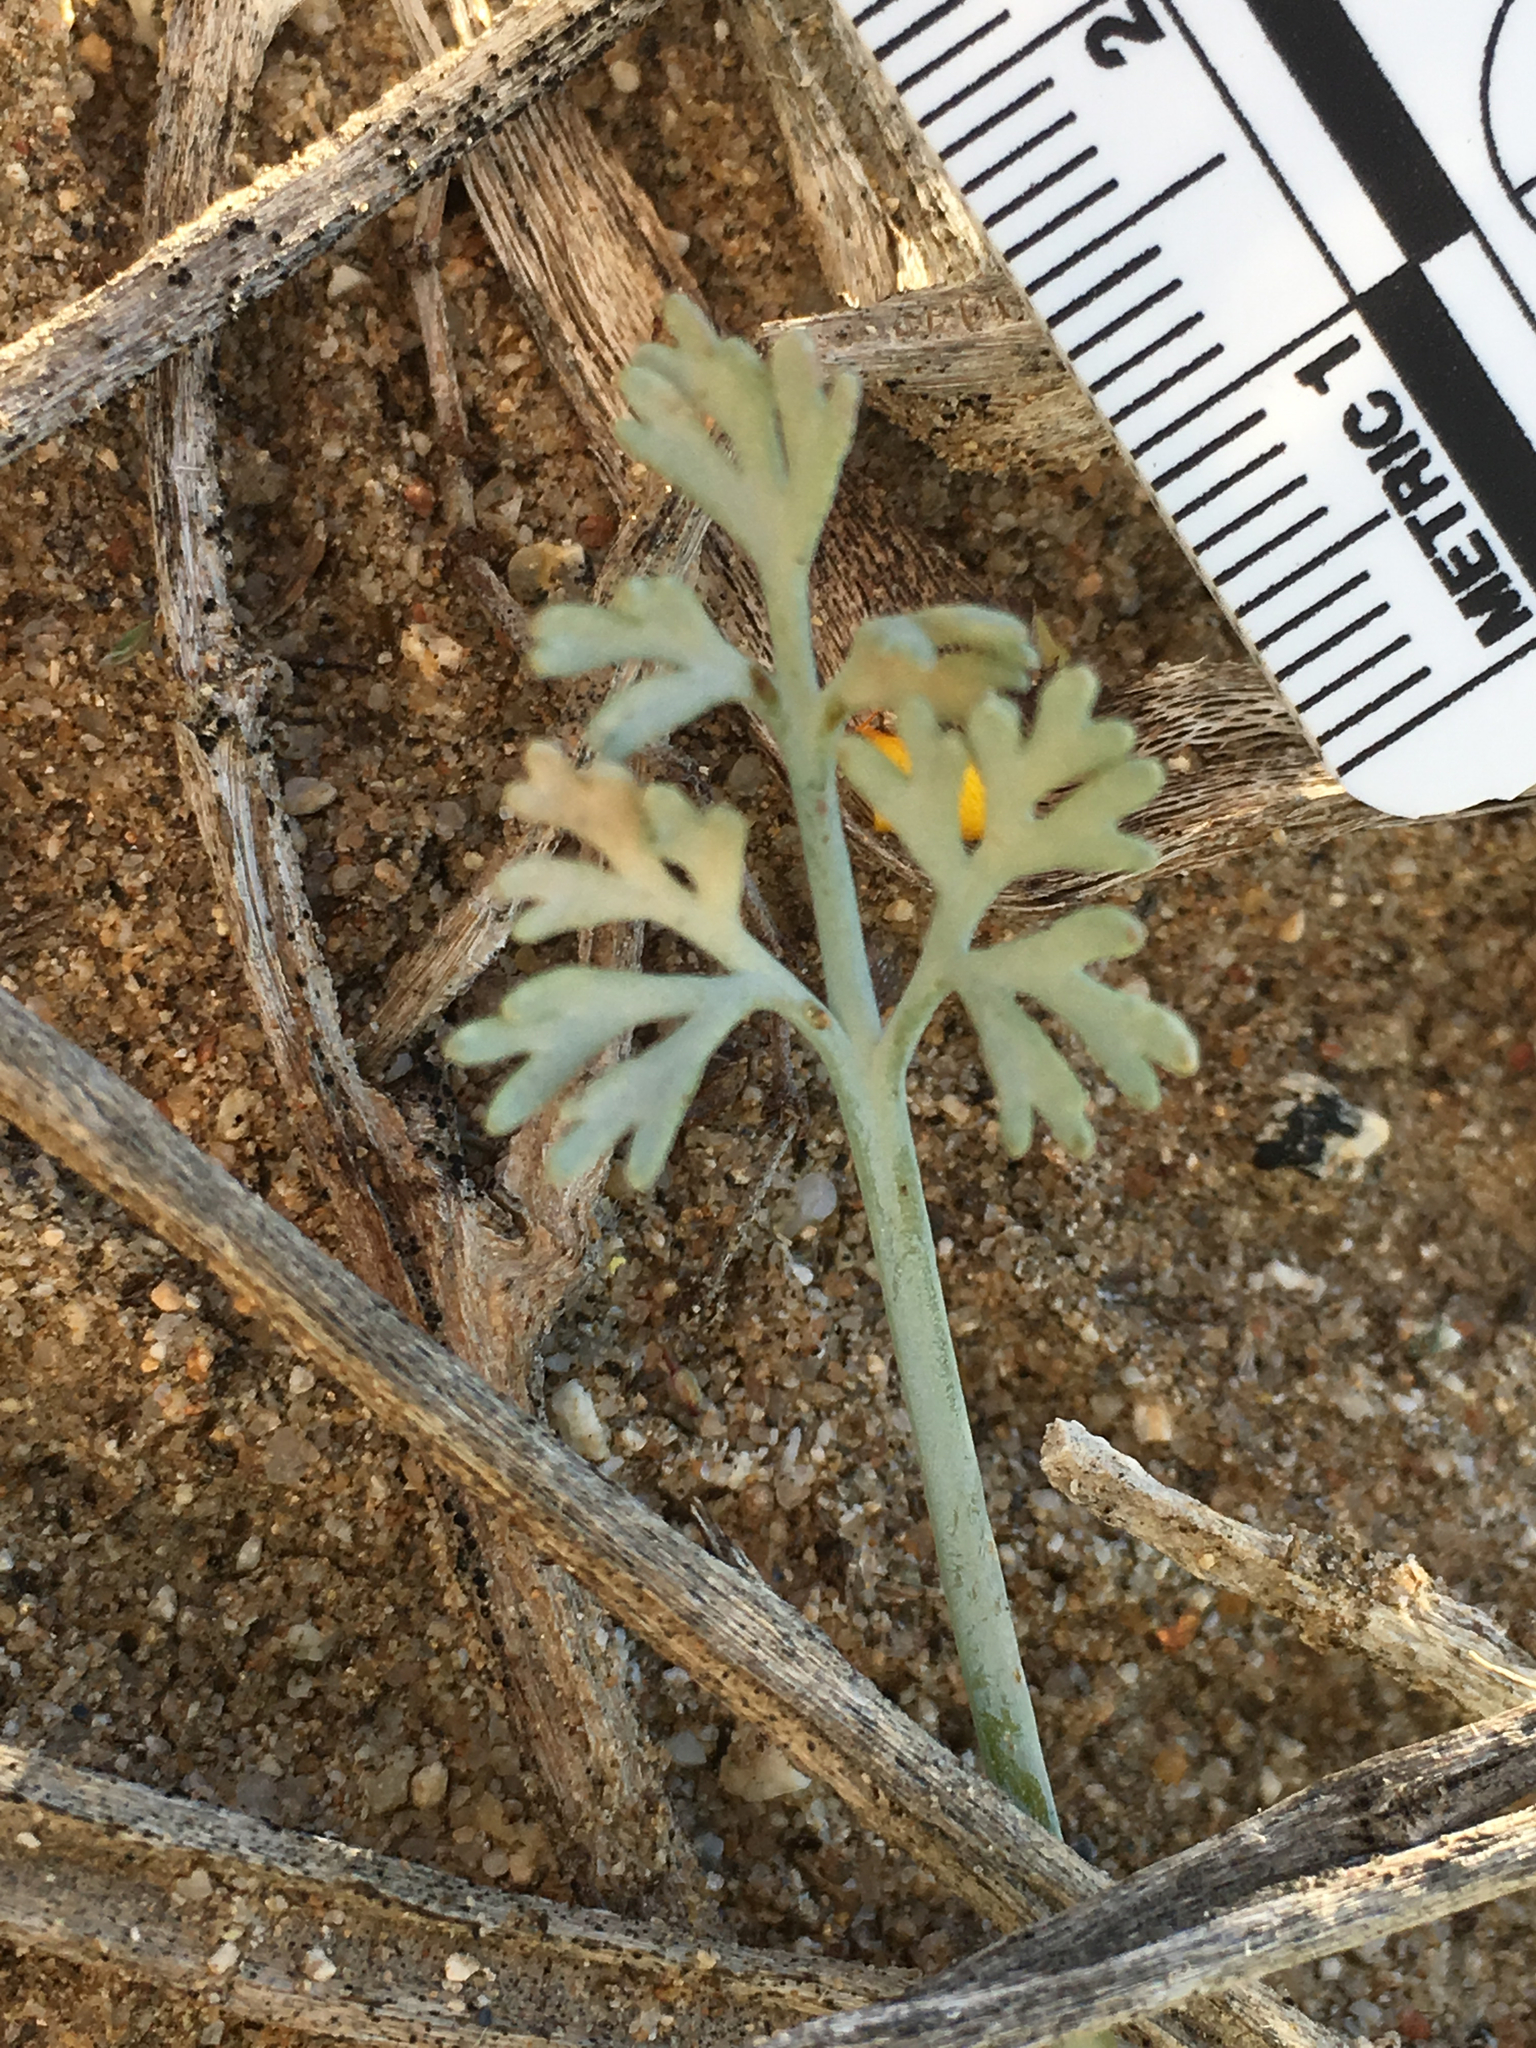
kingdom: Plantae
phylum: Tracheophyta
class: Magnoliopsida
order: Ranunculales
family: Papaveraceae
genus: Eschscholzia
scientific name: Eschscholzia minutiflora
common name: Small-flower california-poppy
